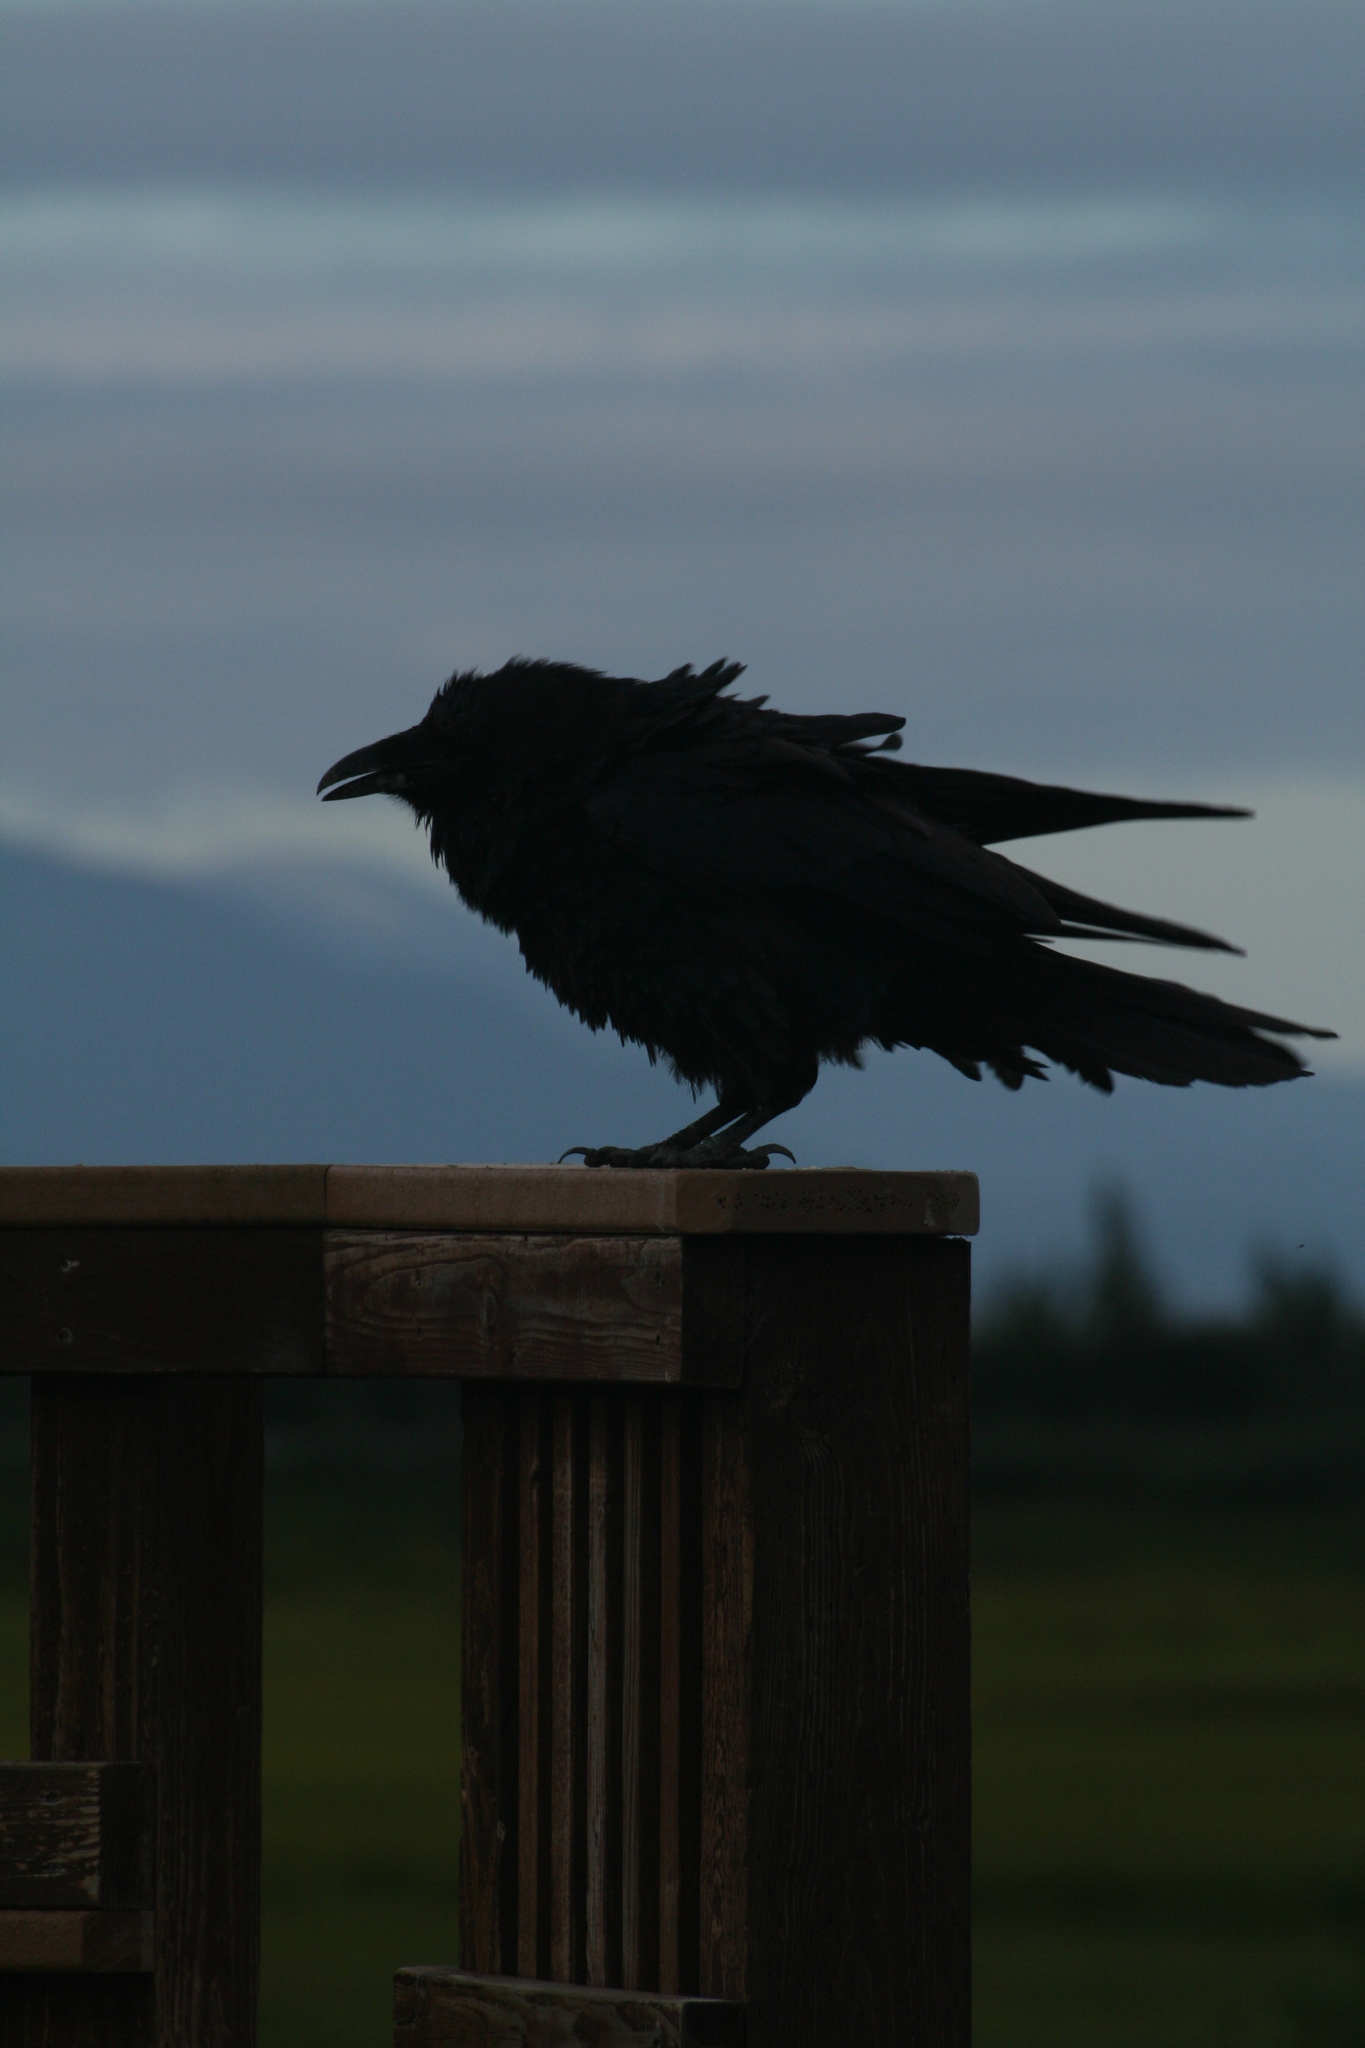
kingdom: Animalia
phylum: Chordata
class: Aves
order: Passeriformes
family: Corvidae
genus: Corvus
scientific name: Corvus corax
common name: Common raven
